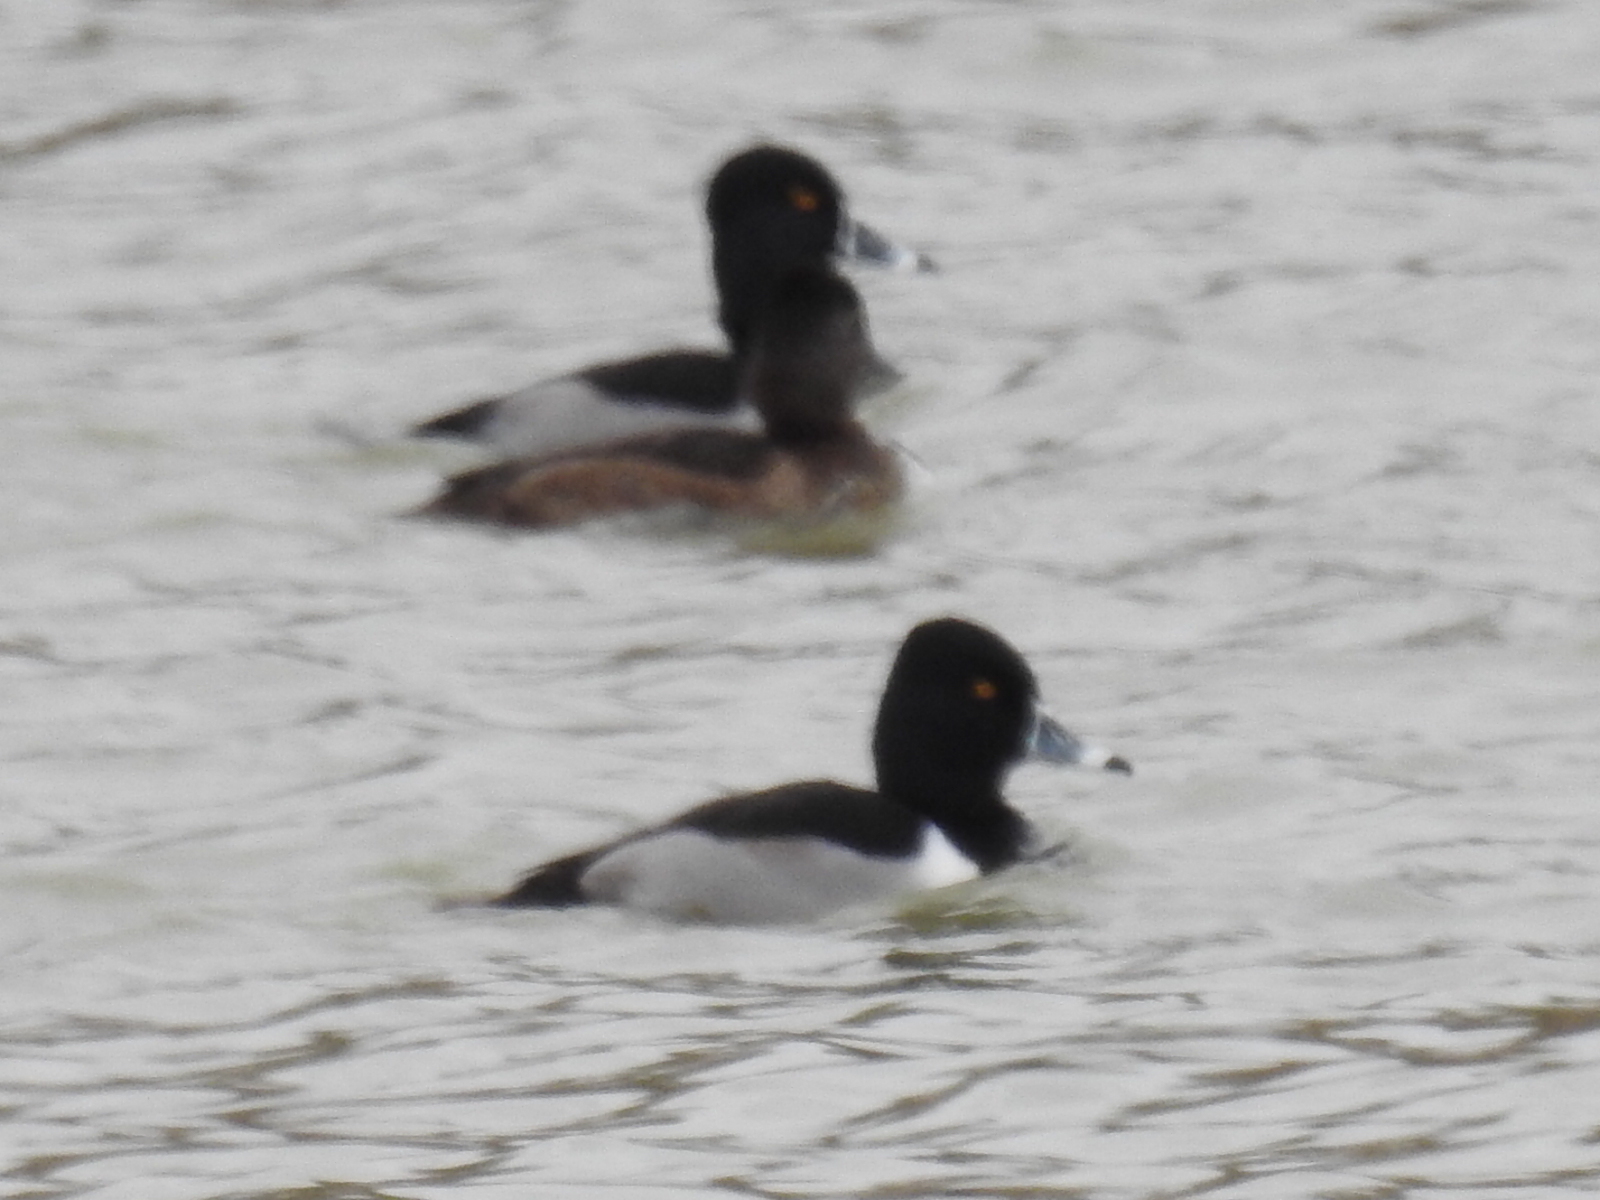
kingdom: Animalia
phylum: Chordata
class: Aves
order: Anseriformes
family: Anatidae
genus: Aythya
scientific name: Aythya collaris
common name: Ring-necked duck
